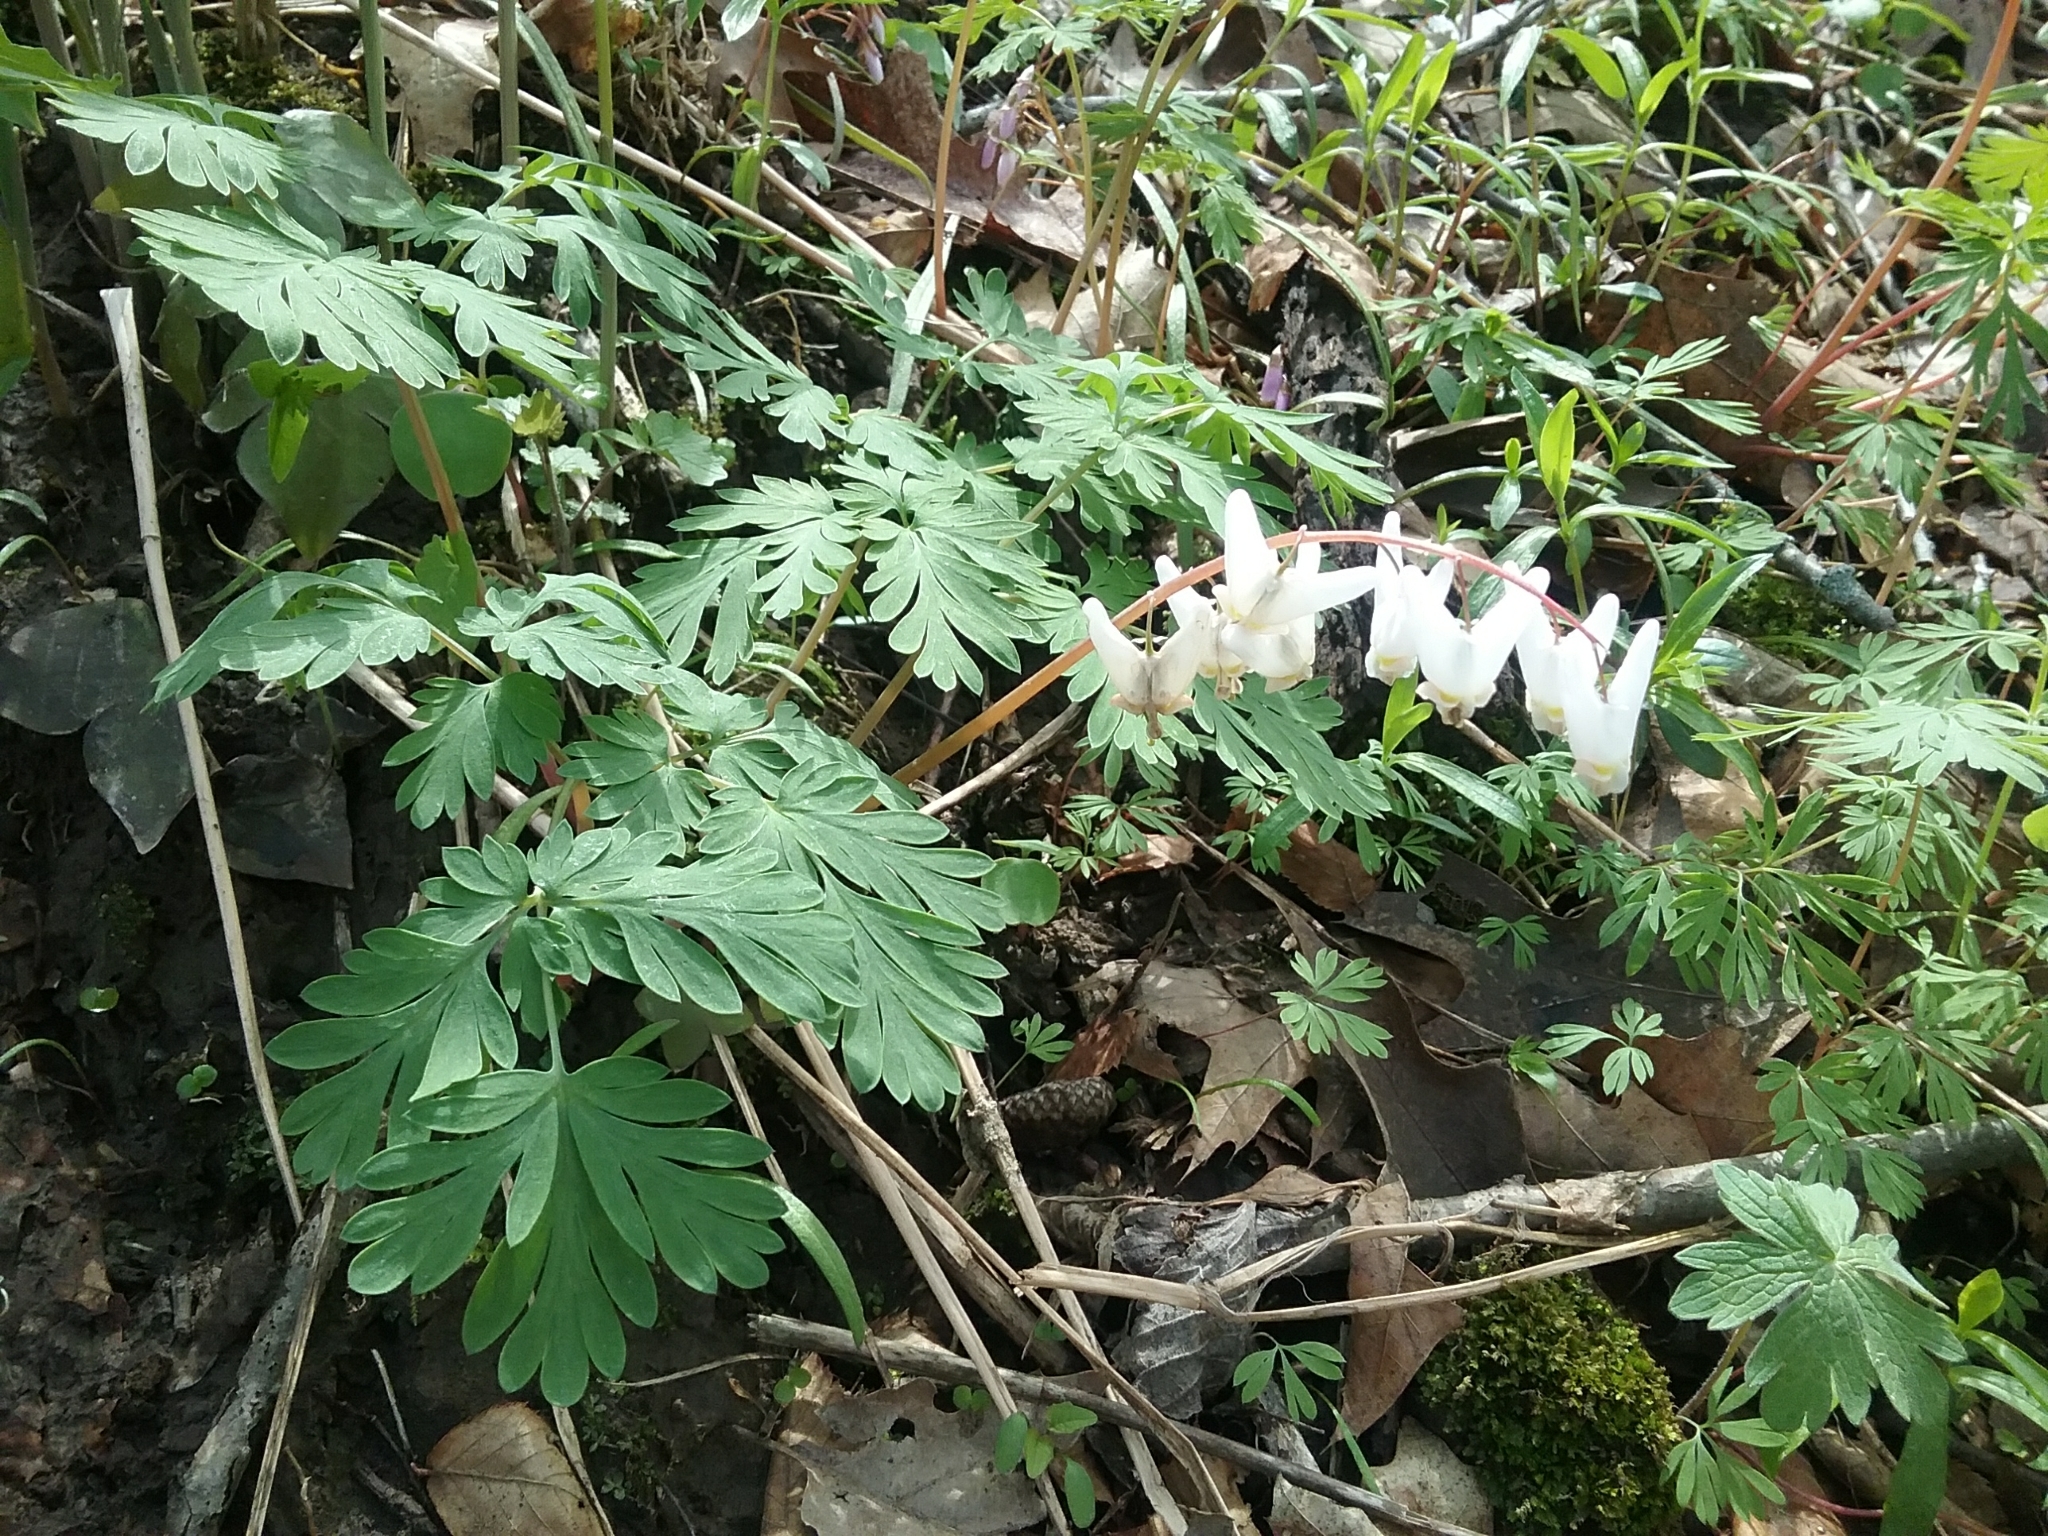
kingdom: Plantae
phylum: Tracheophyta
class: Magnoliopsida
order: Ranunculales
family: Papaveraceae
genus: Dicentra
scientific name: Dicentra cucullaria
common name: Dutchman's breeches
